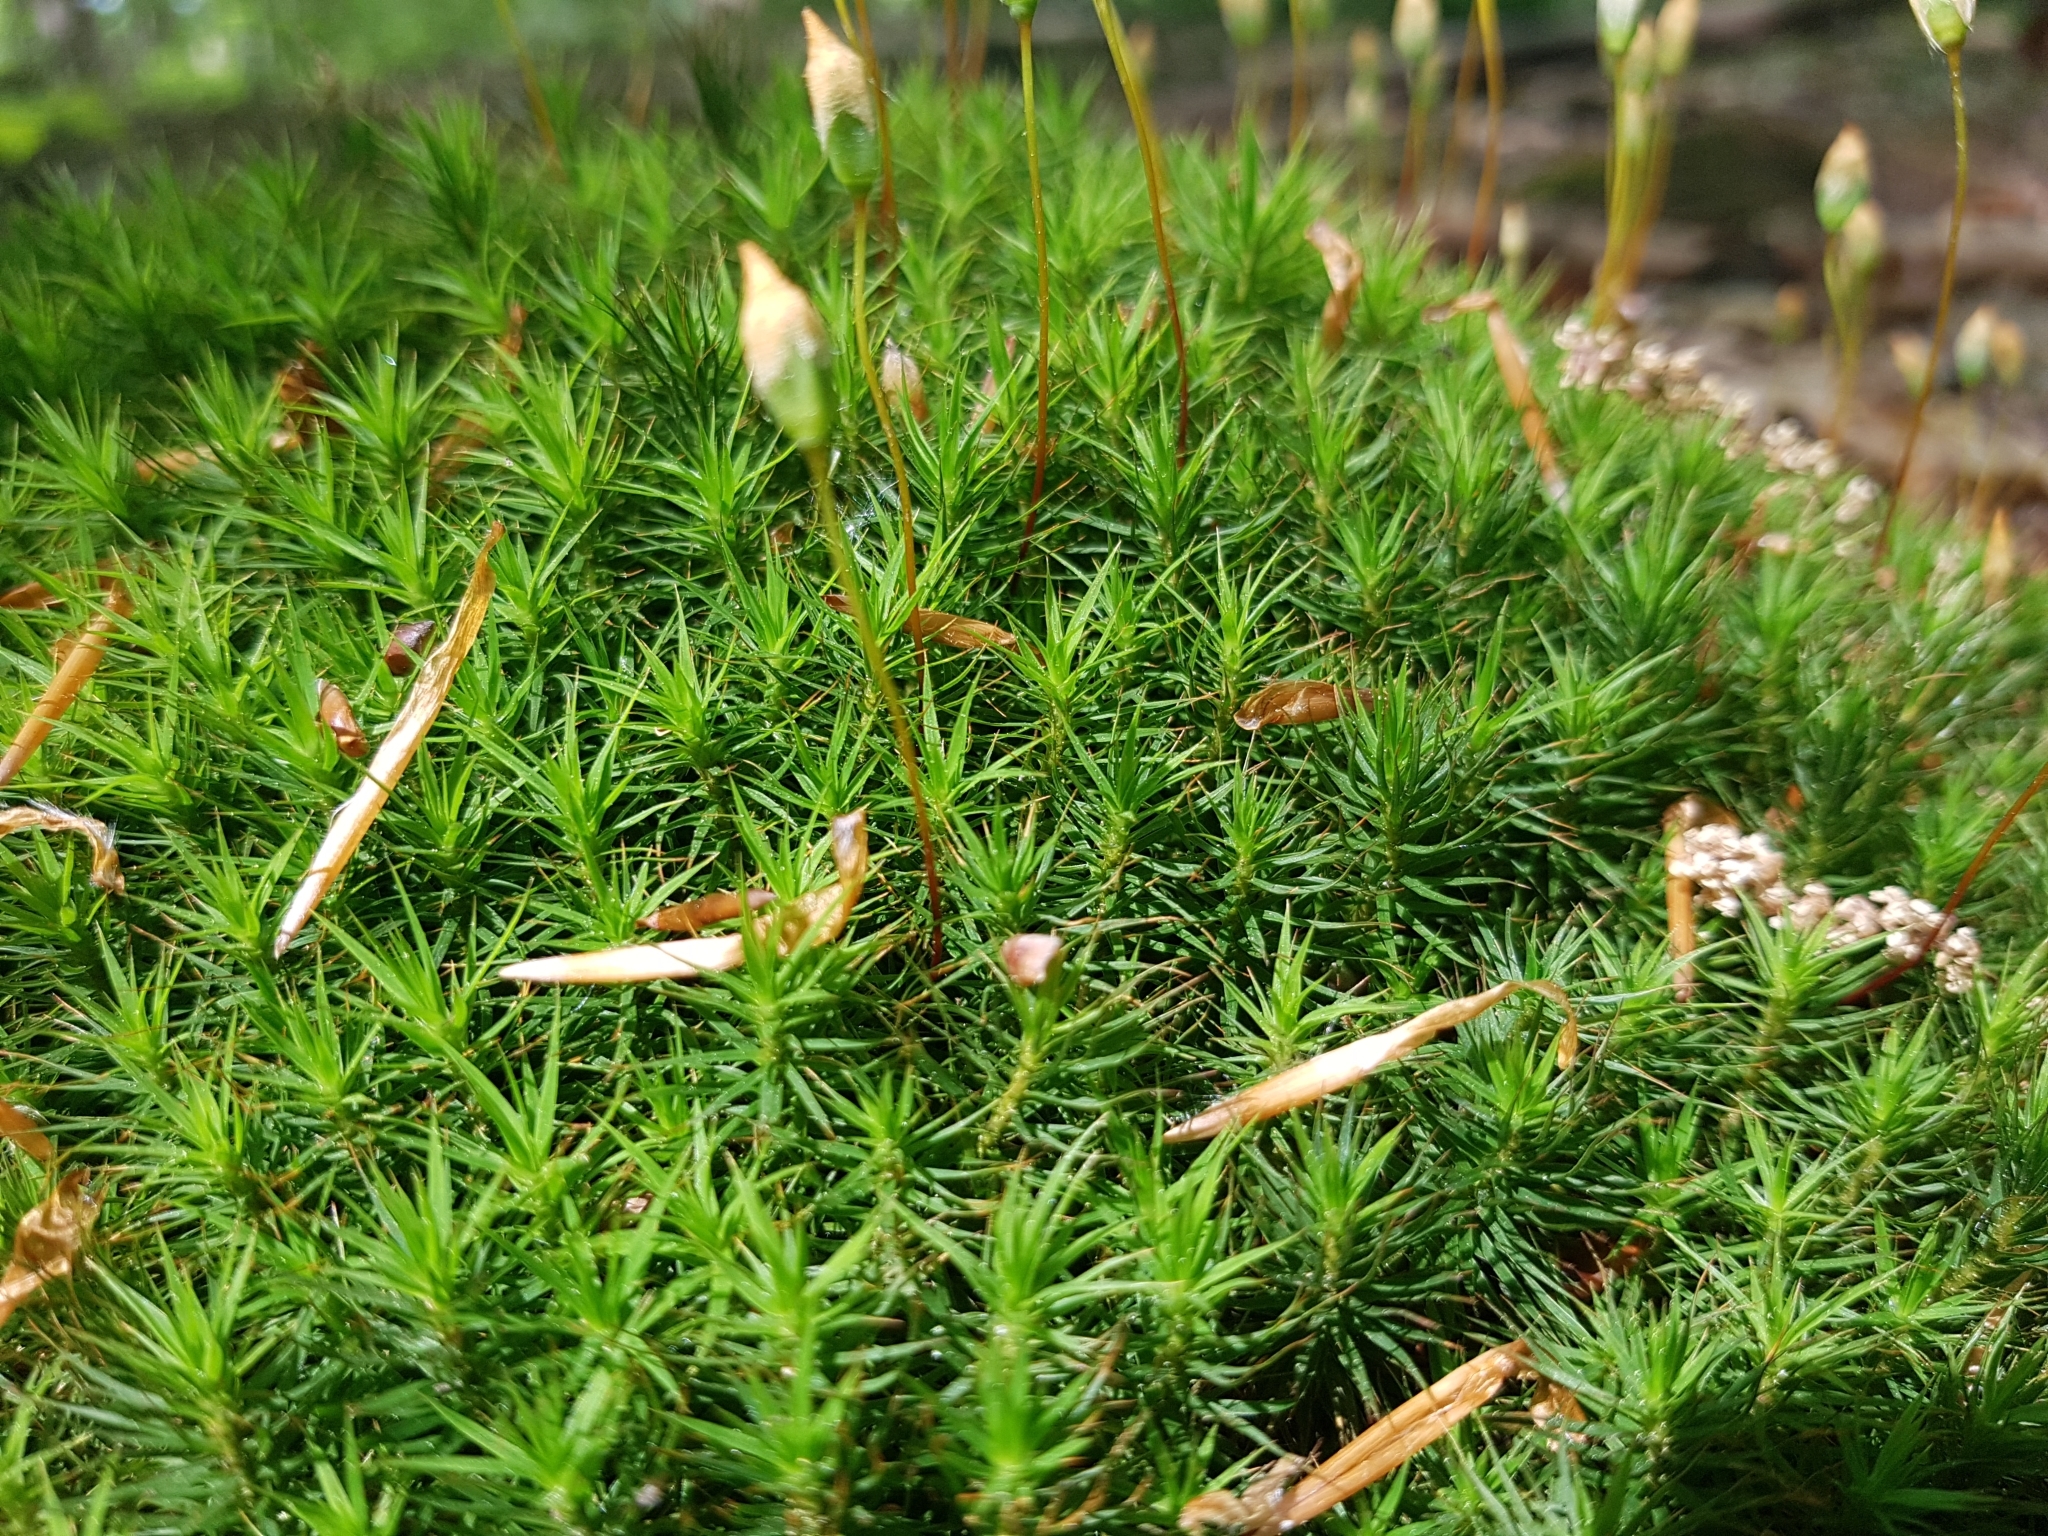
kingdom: Plantae
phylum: Bryophyta
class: Polytrichopsida
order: Polytrichales
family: Polytrichaceae
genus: Polytrichum
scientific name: Polytrichum formosum
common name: Bank haircap moss
